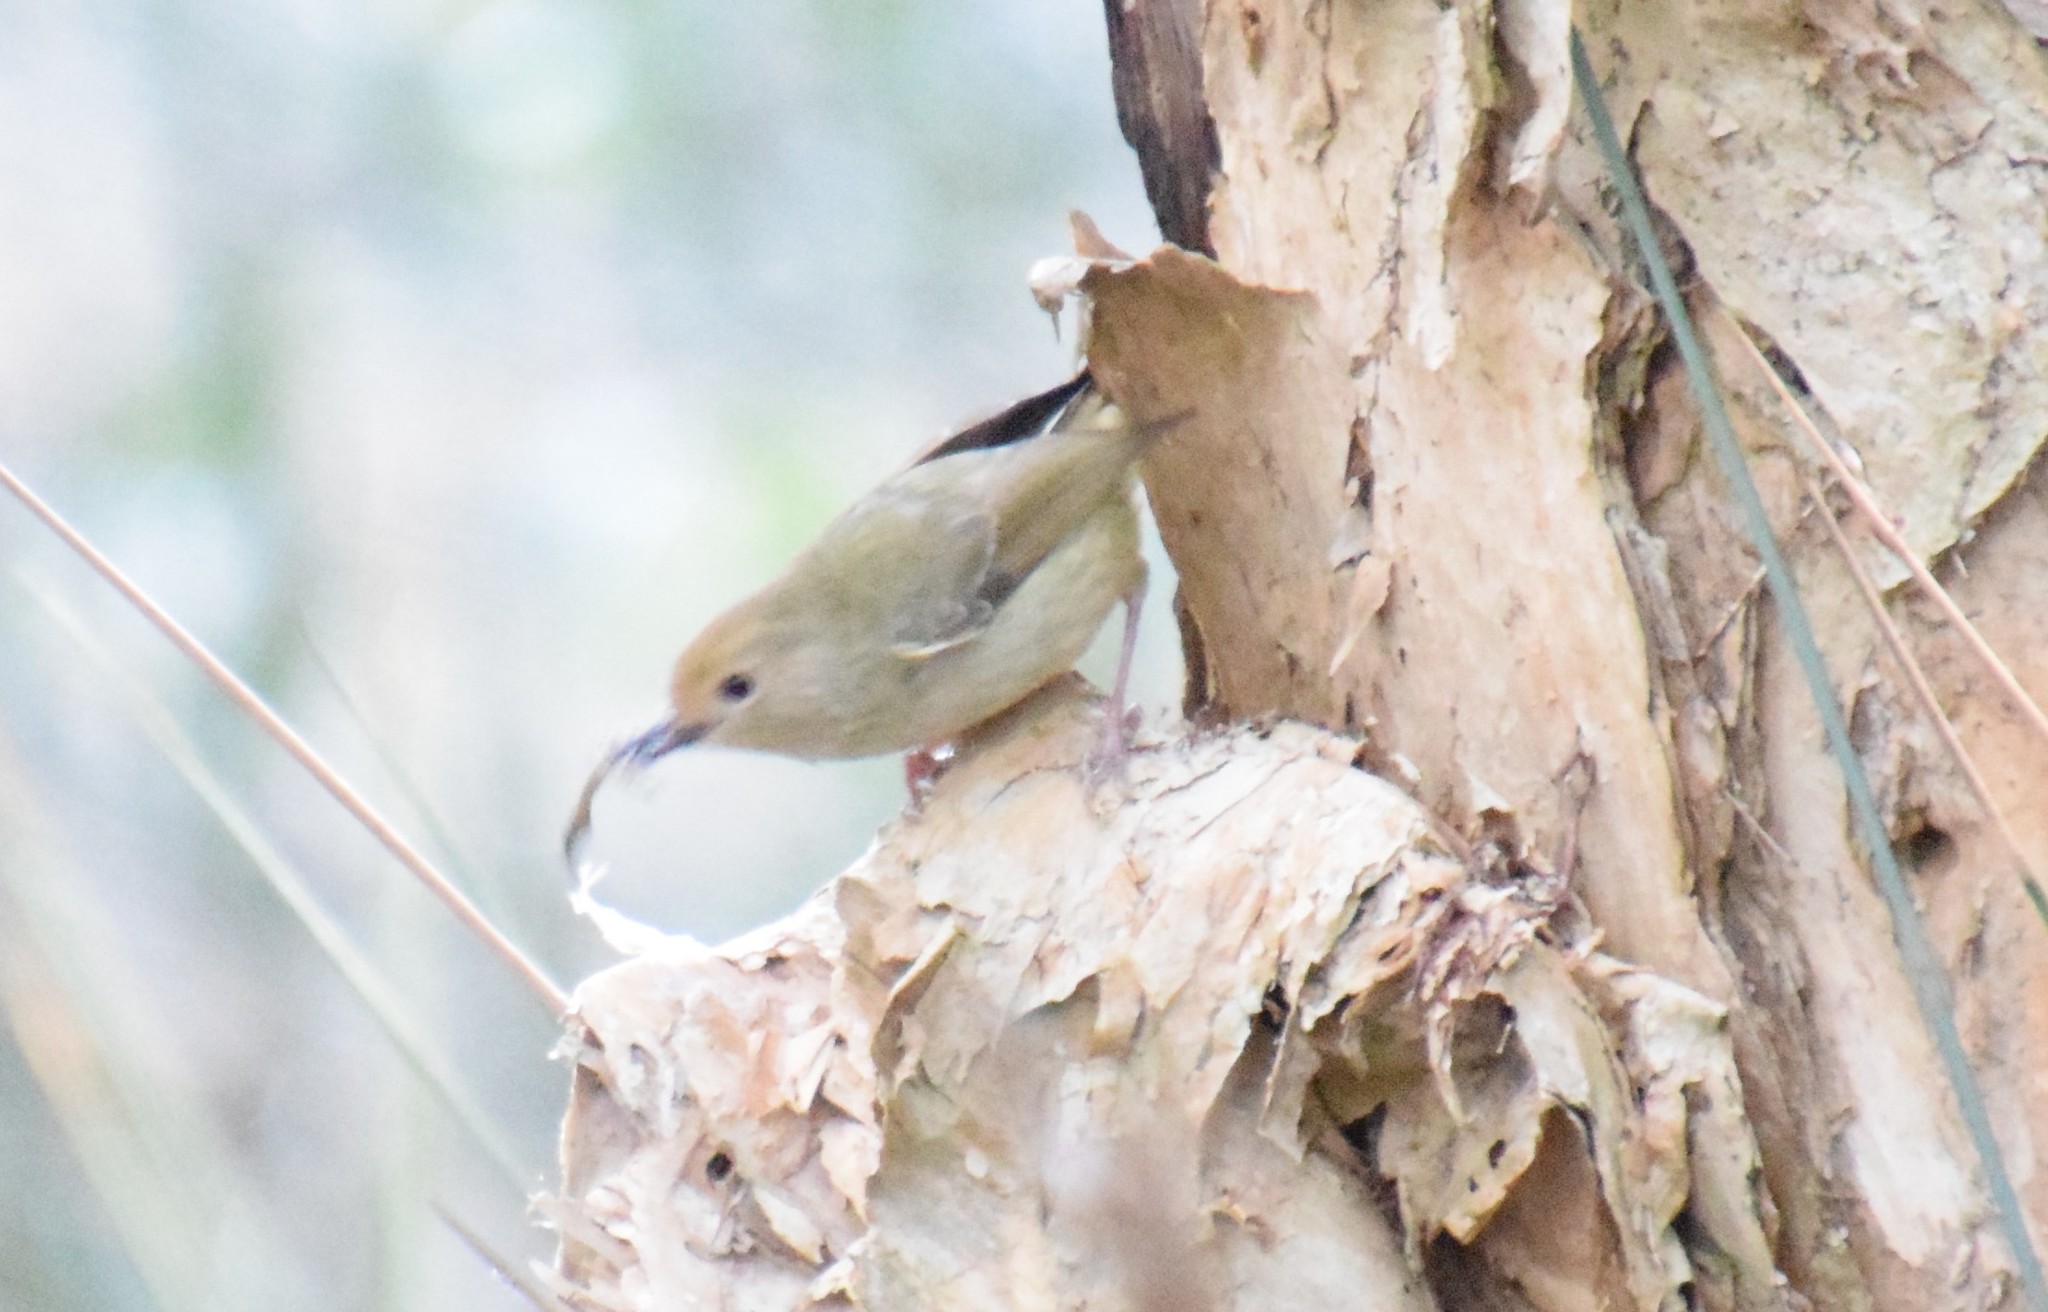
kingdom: Animalia
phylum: Chordata
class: Aves
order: Passeriformes
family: Acanthizidae
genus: Sericornis
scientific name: Sericornis magnirostra
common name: Large-billed scrubwren
